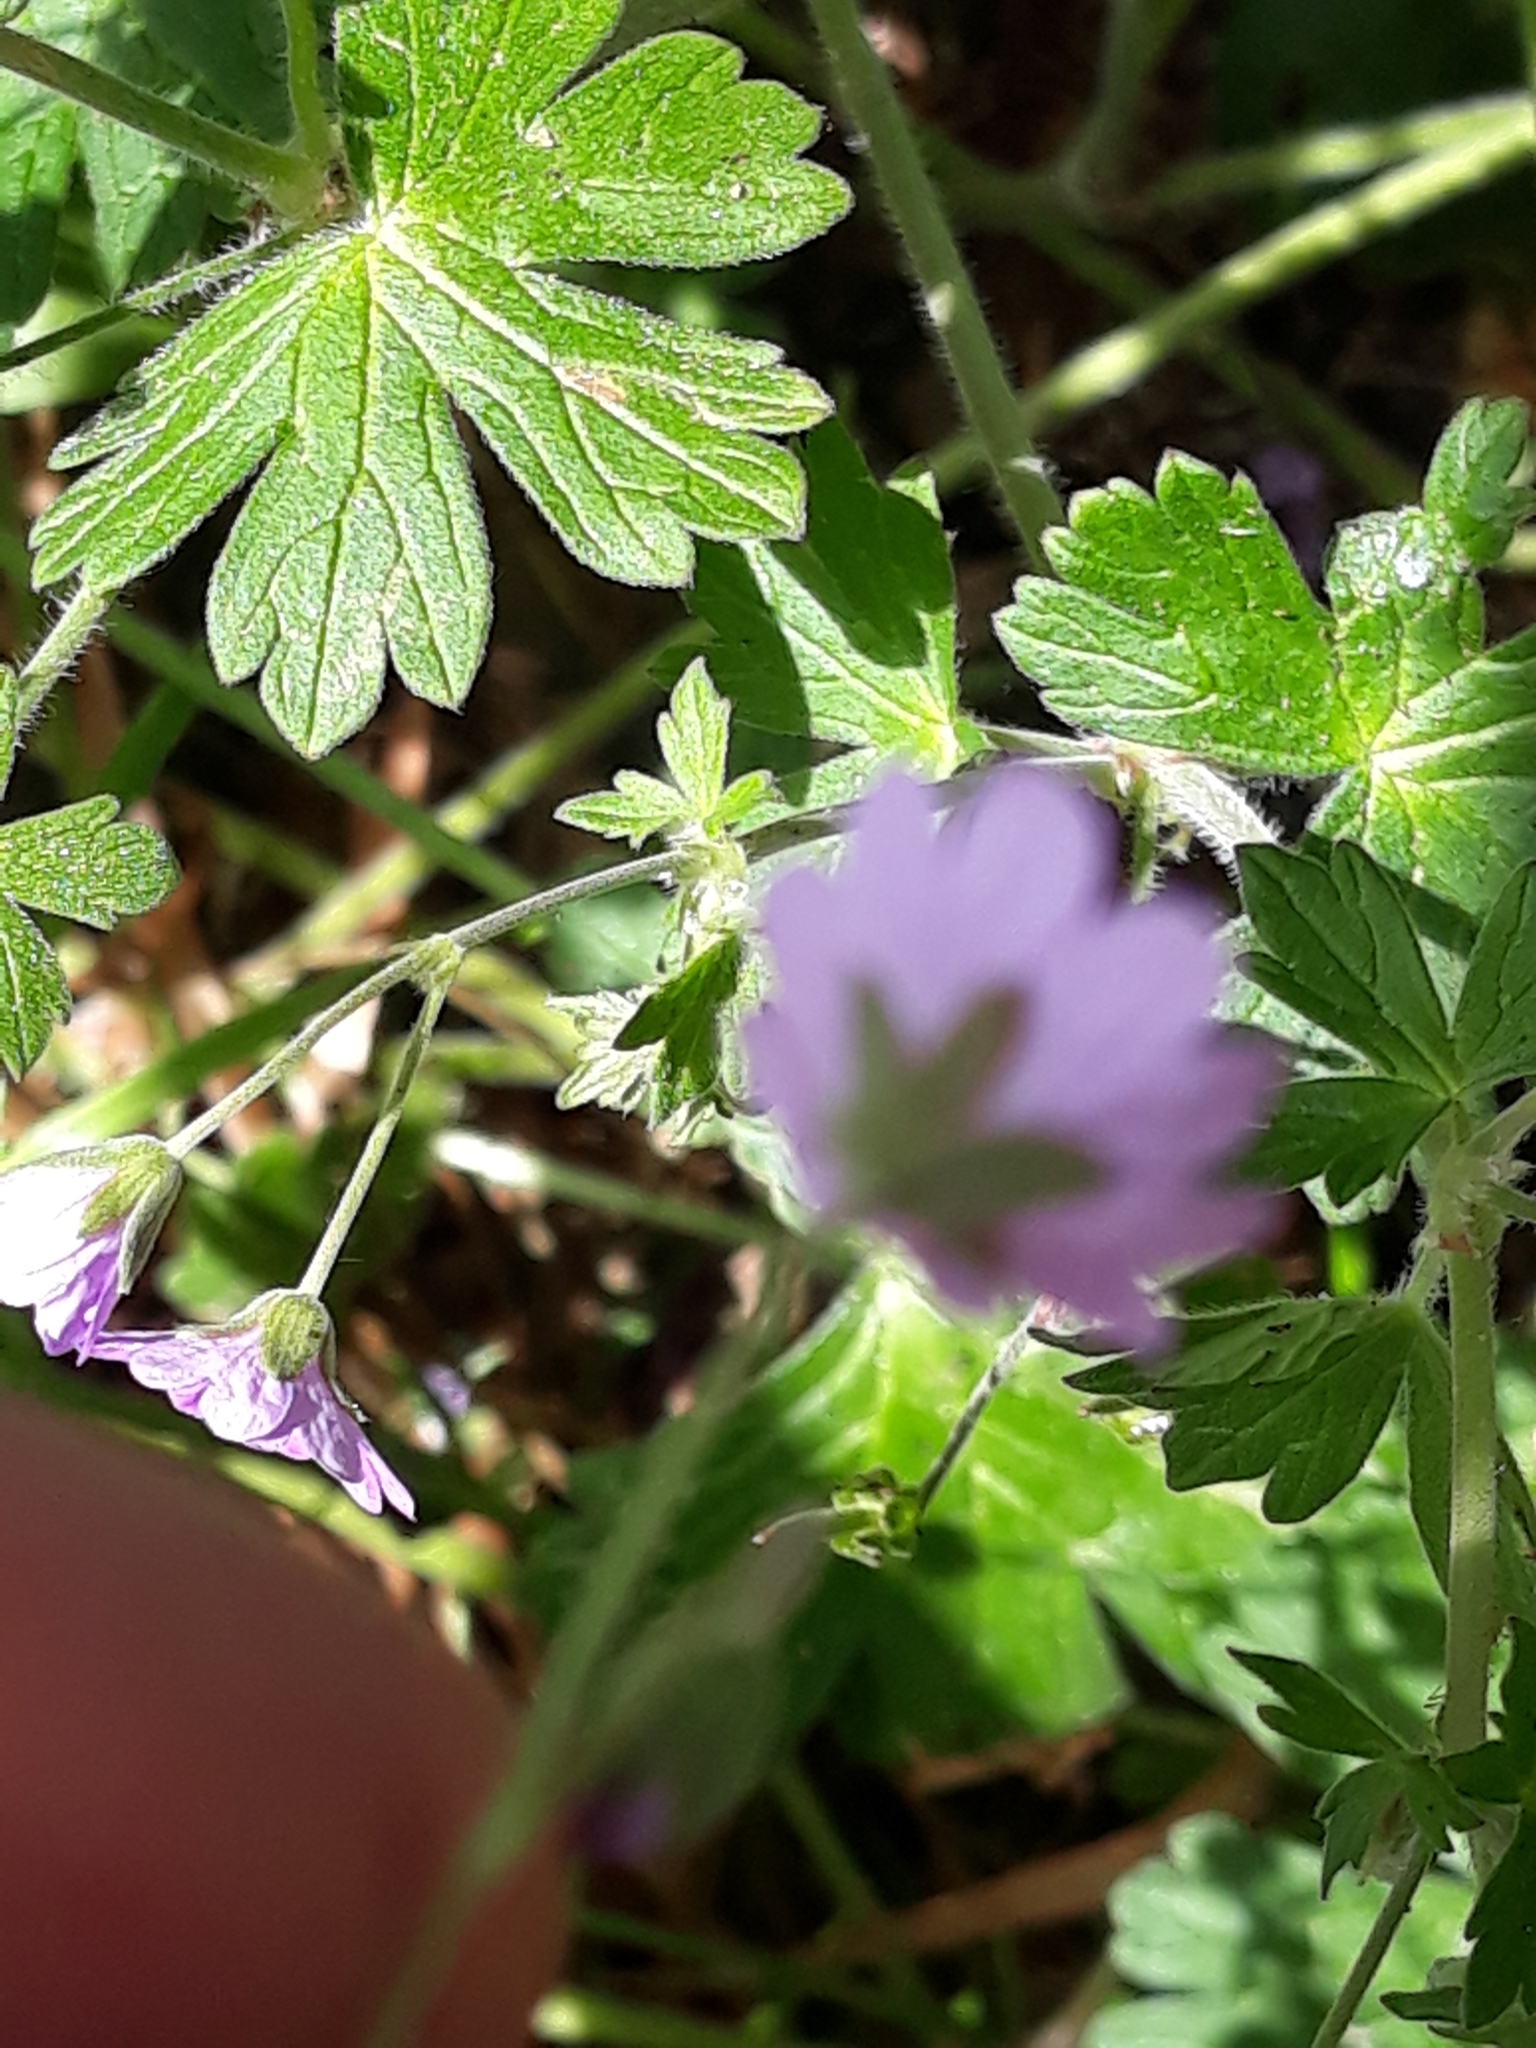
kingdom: Plantae
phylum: Tracheophyta
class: Magnoliopsida
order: Geraniales
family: Geraniaceae
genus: Geranium
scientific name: Geranium pyrenaicum
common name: Hedgerow crane's-bill
